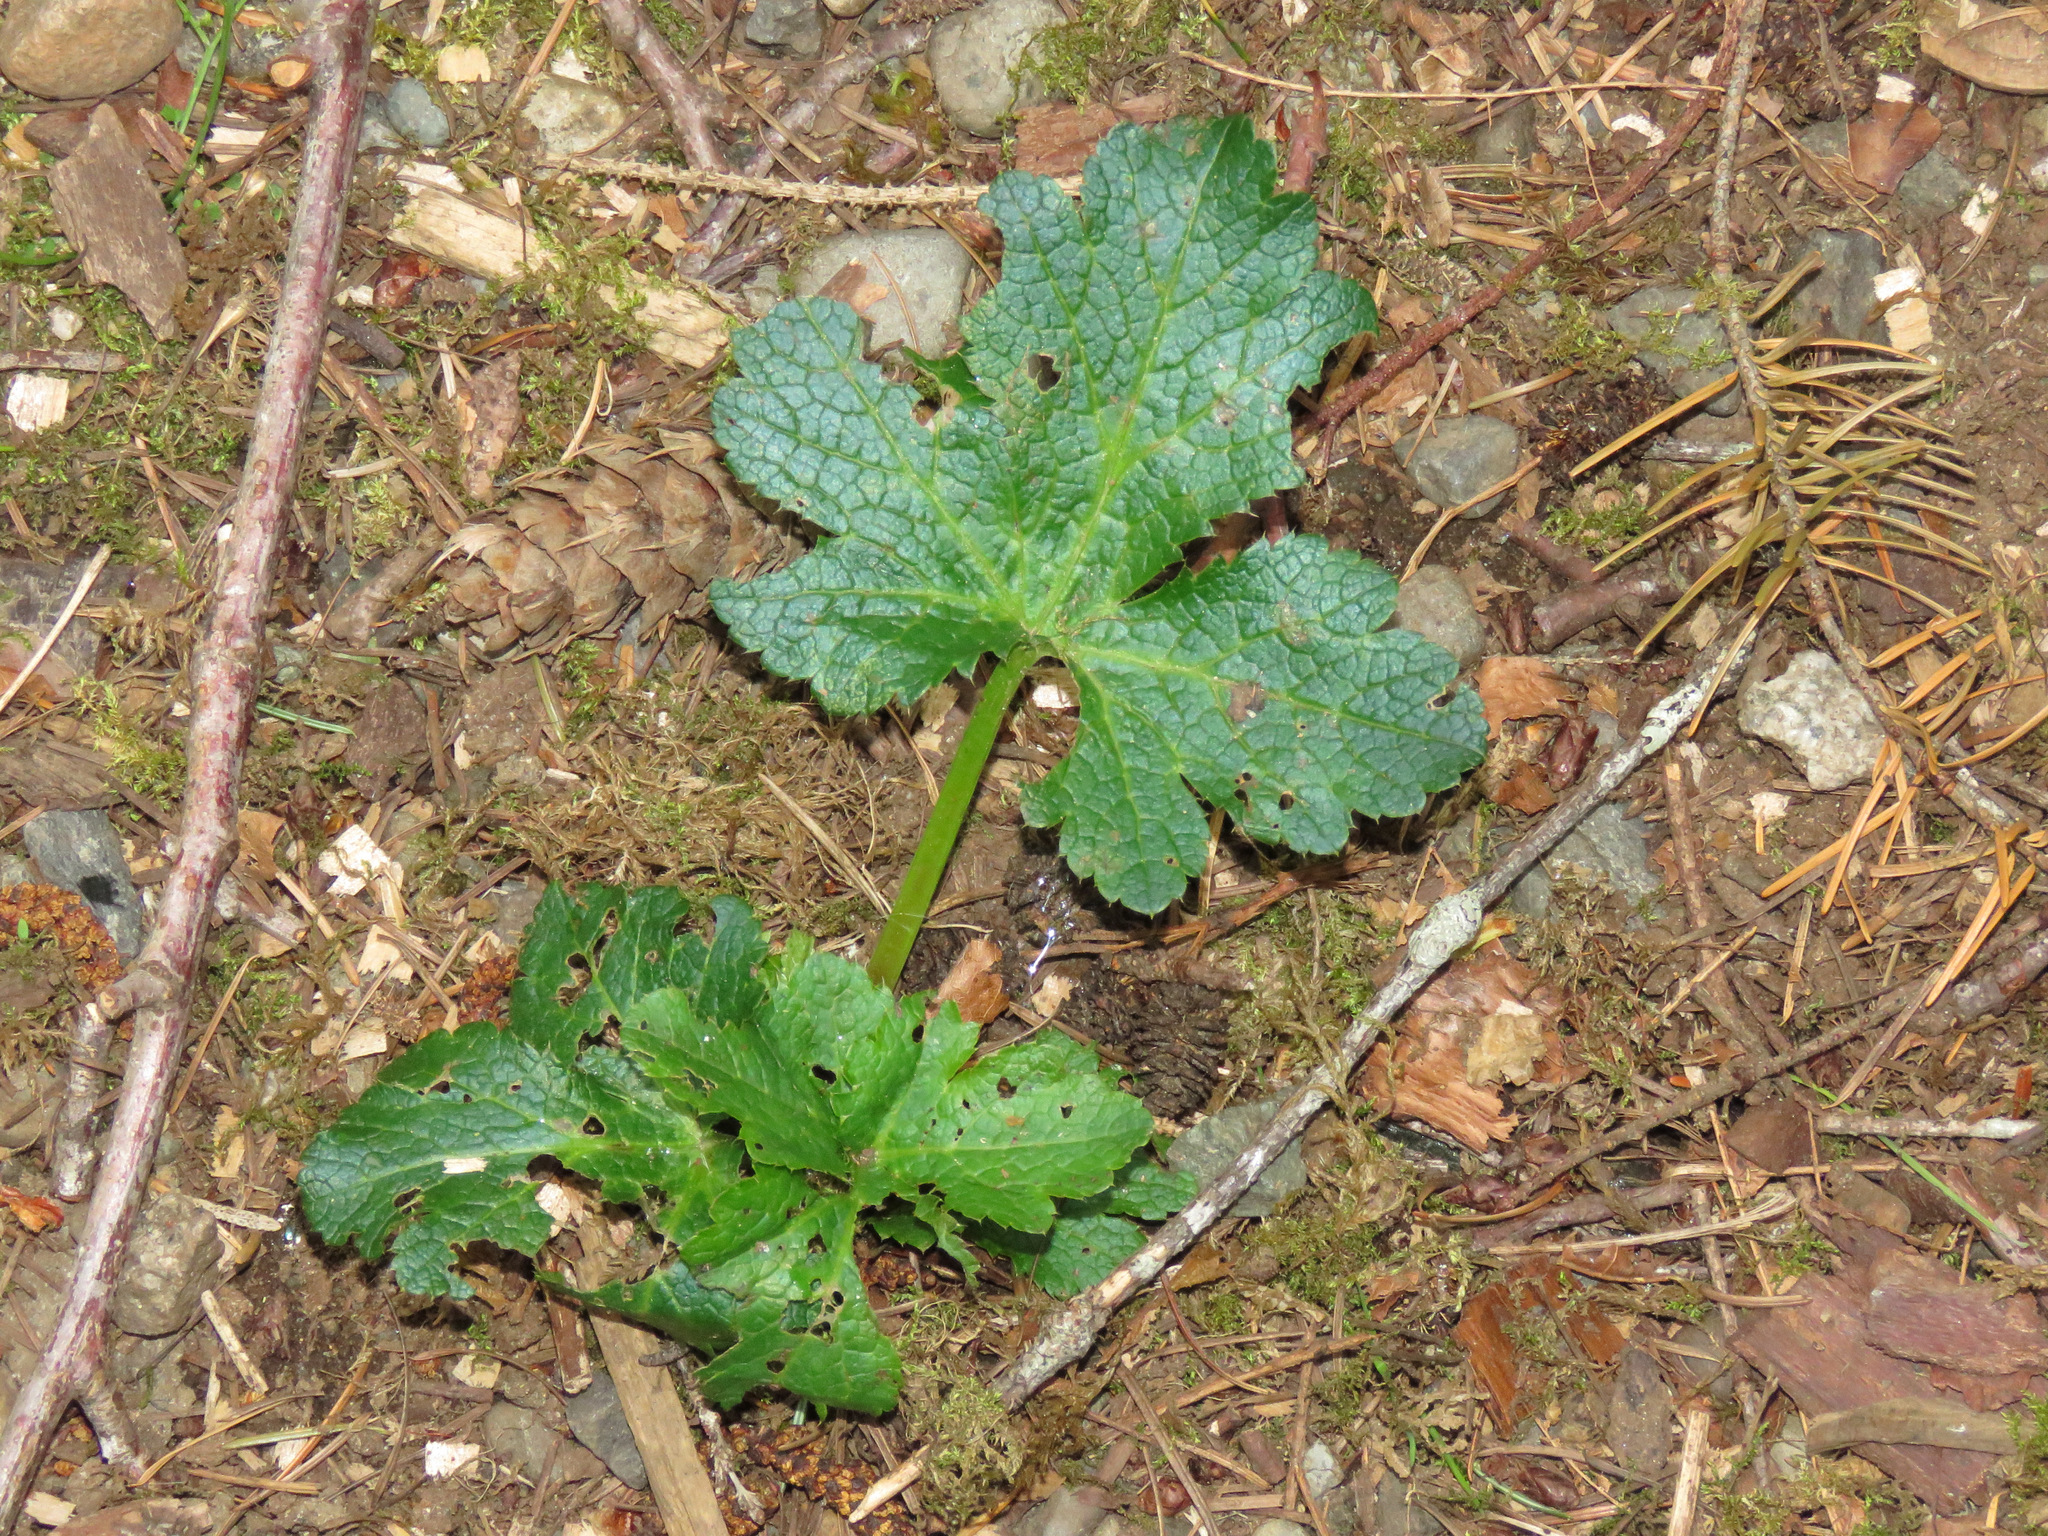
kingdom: Plantae
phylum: Tracheophyta
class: Magnoliopsida
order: Apiales
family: Apiaceae
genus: Sanicula
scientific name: Sanicula crassicaulis
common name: Western snakeroot
